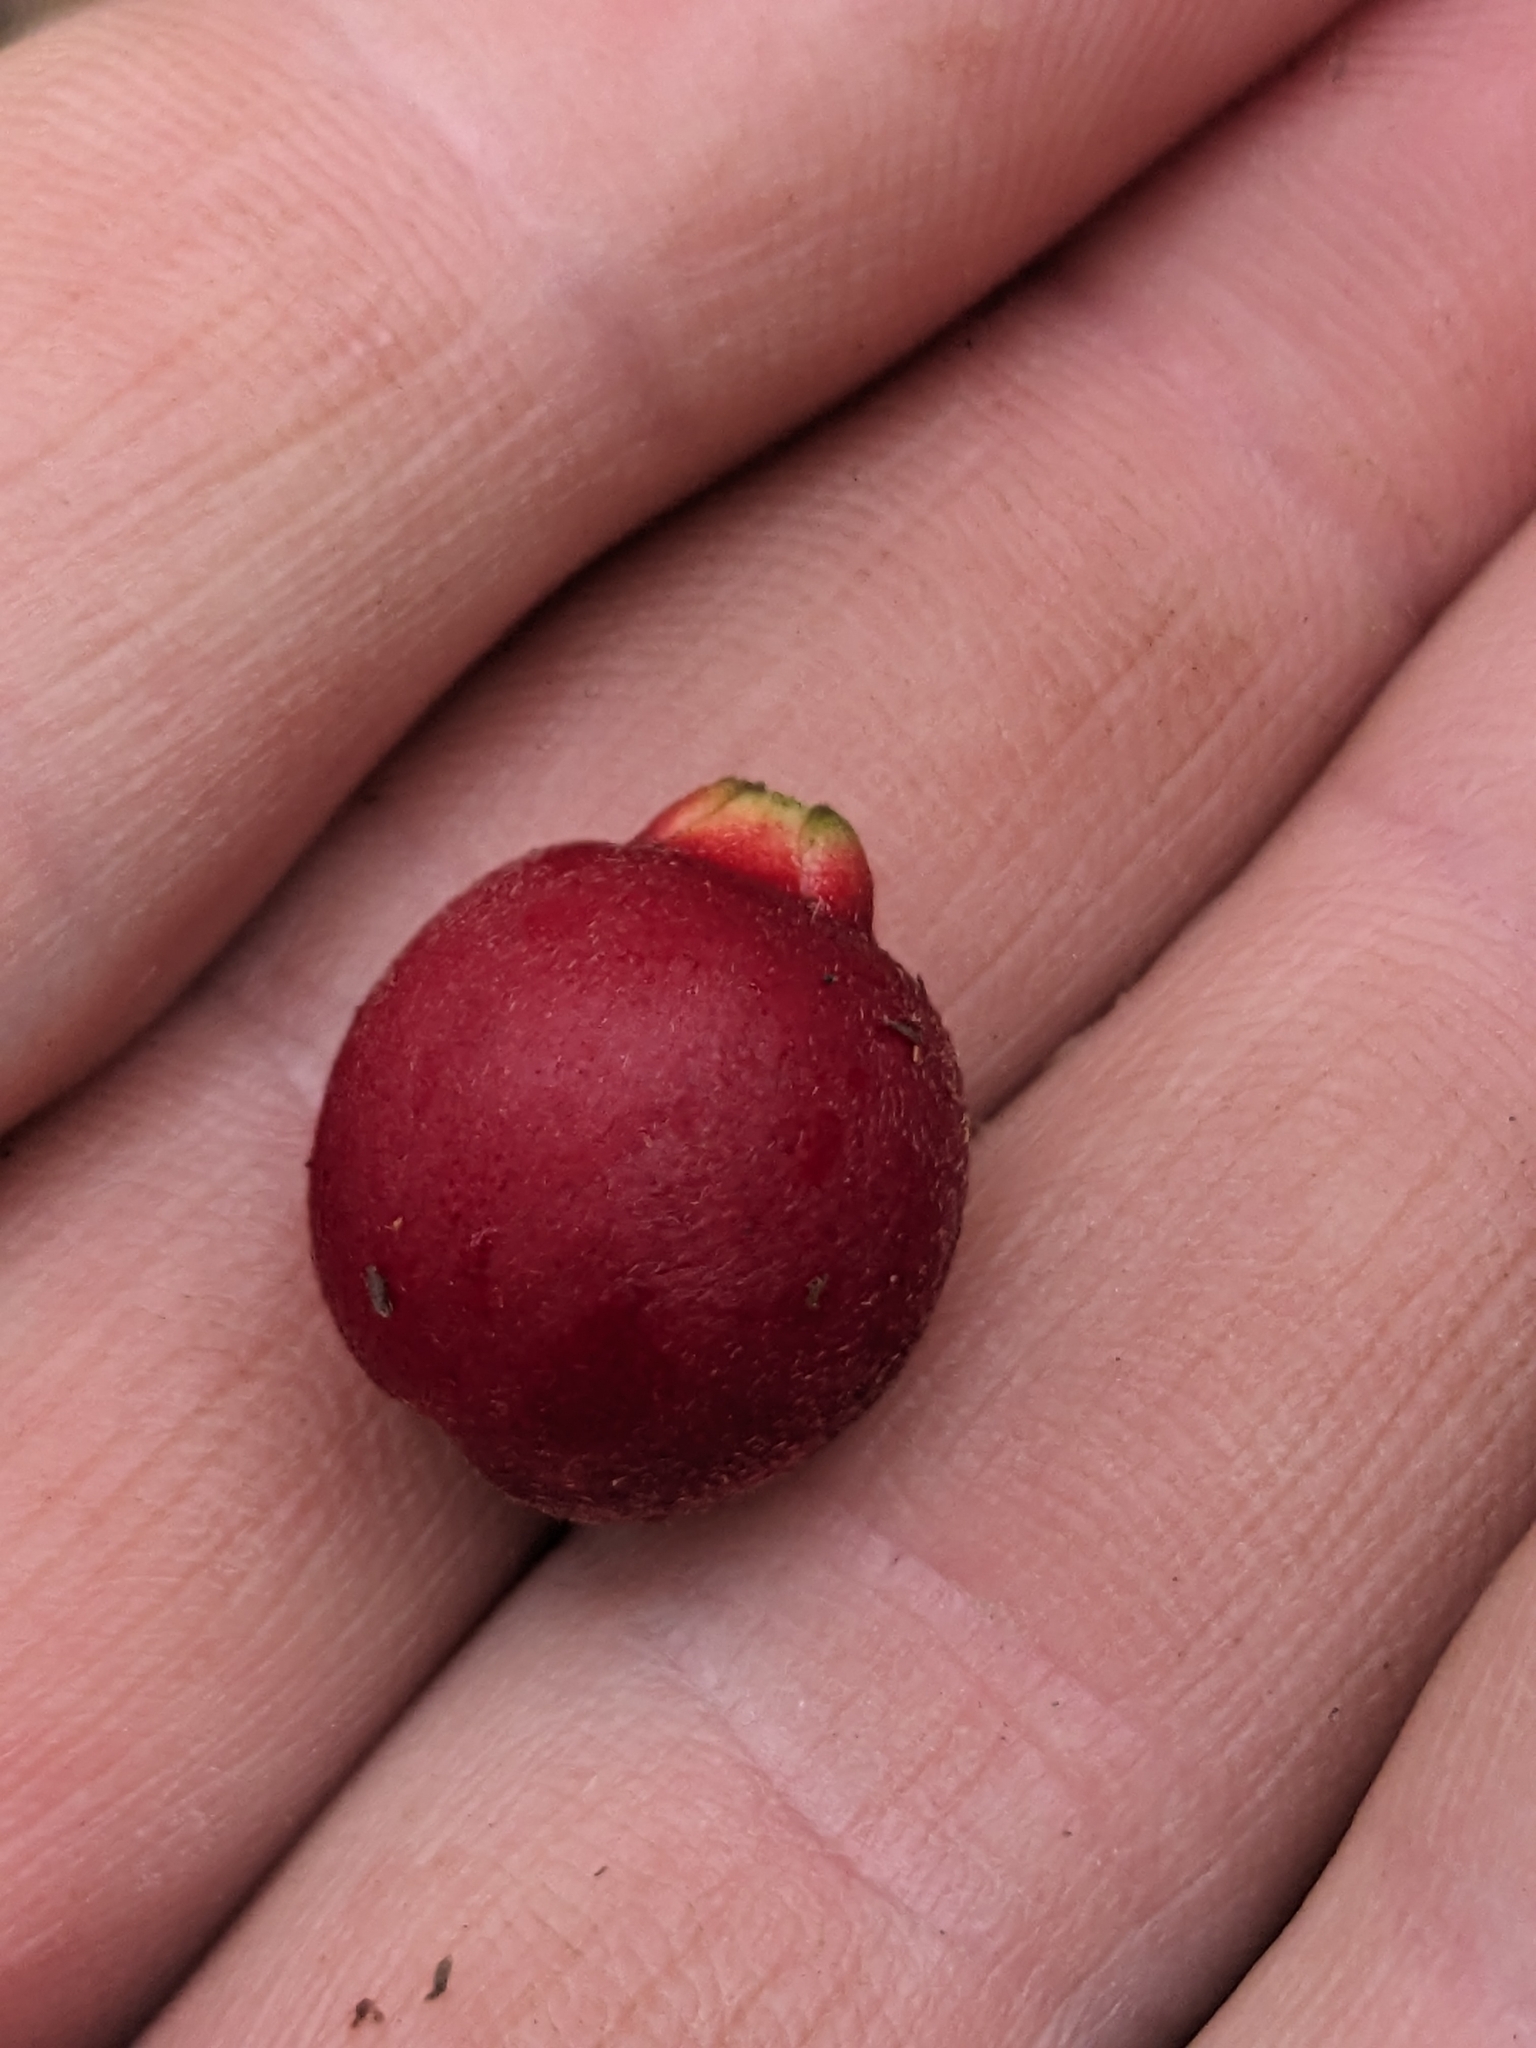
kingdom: Plantae
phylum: Tracheophyta
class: Magnoliopsida
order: Myrtales
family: Myrtaceae
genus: Eugenia
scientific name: Eugenia reinwardtiana
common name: Cedar bay-cherry
